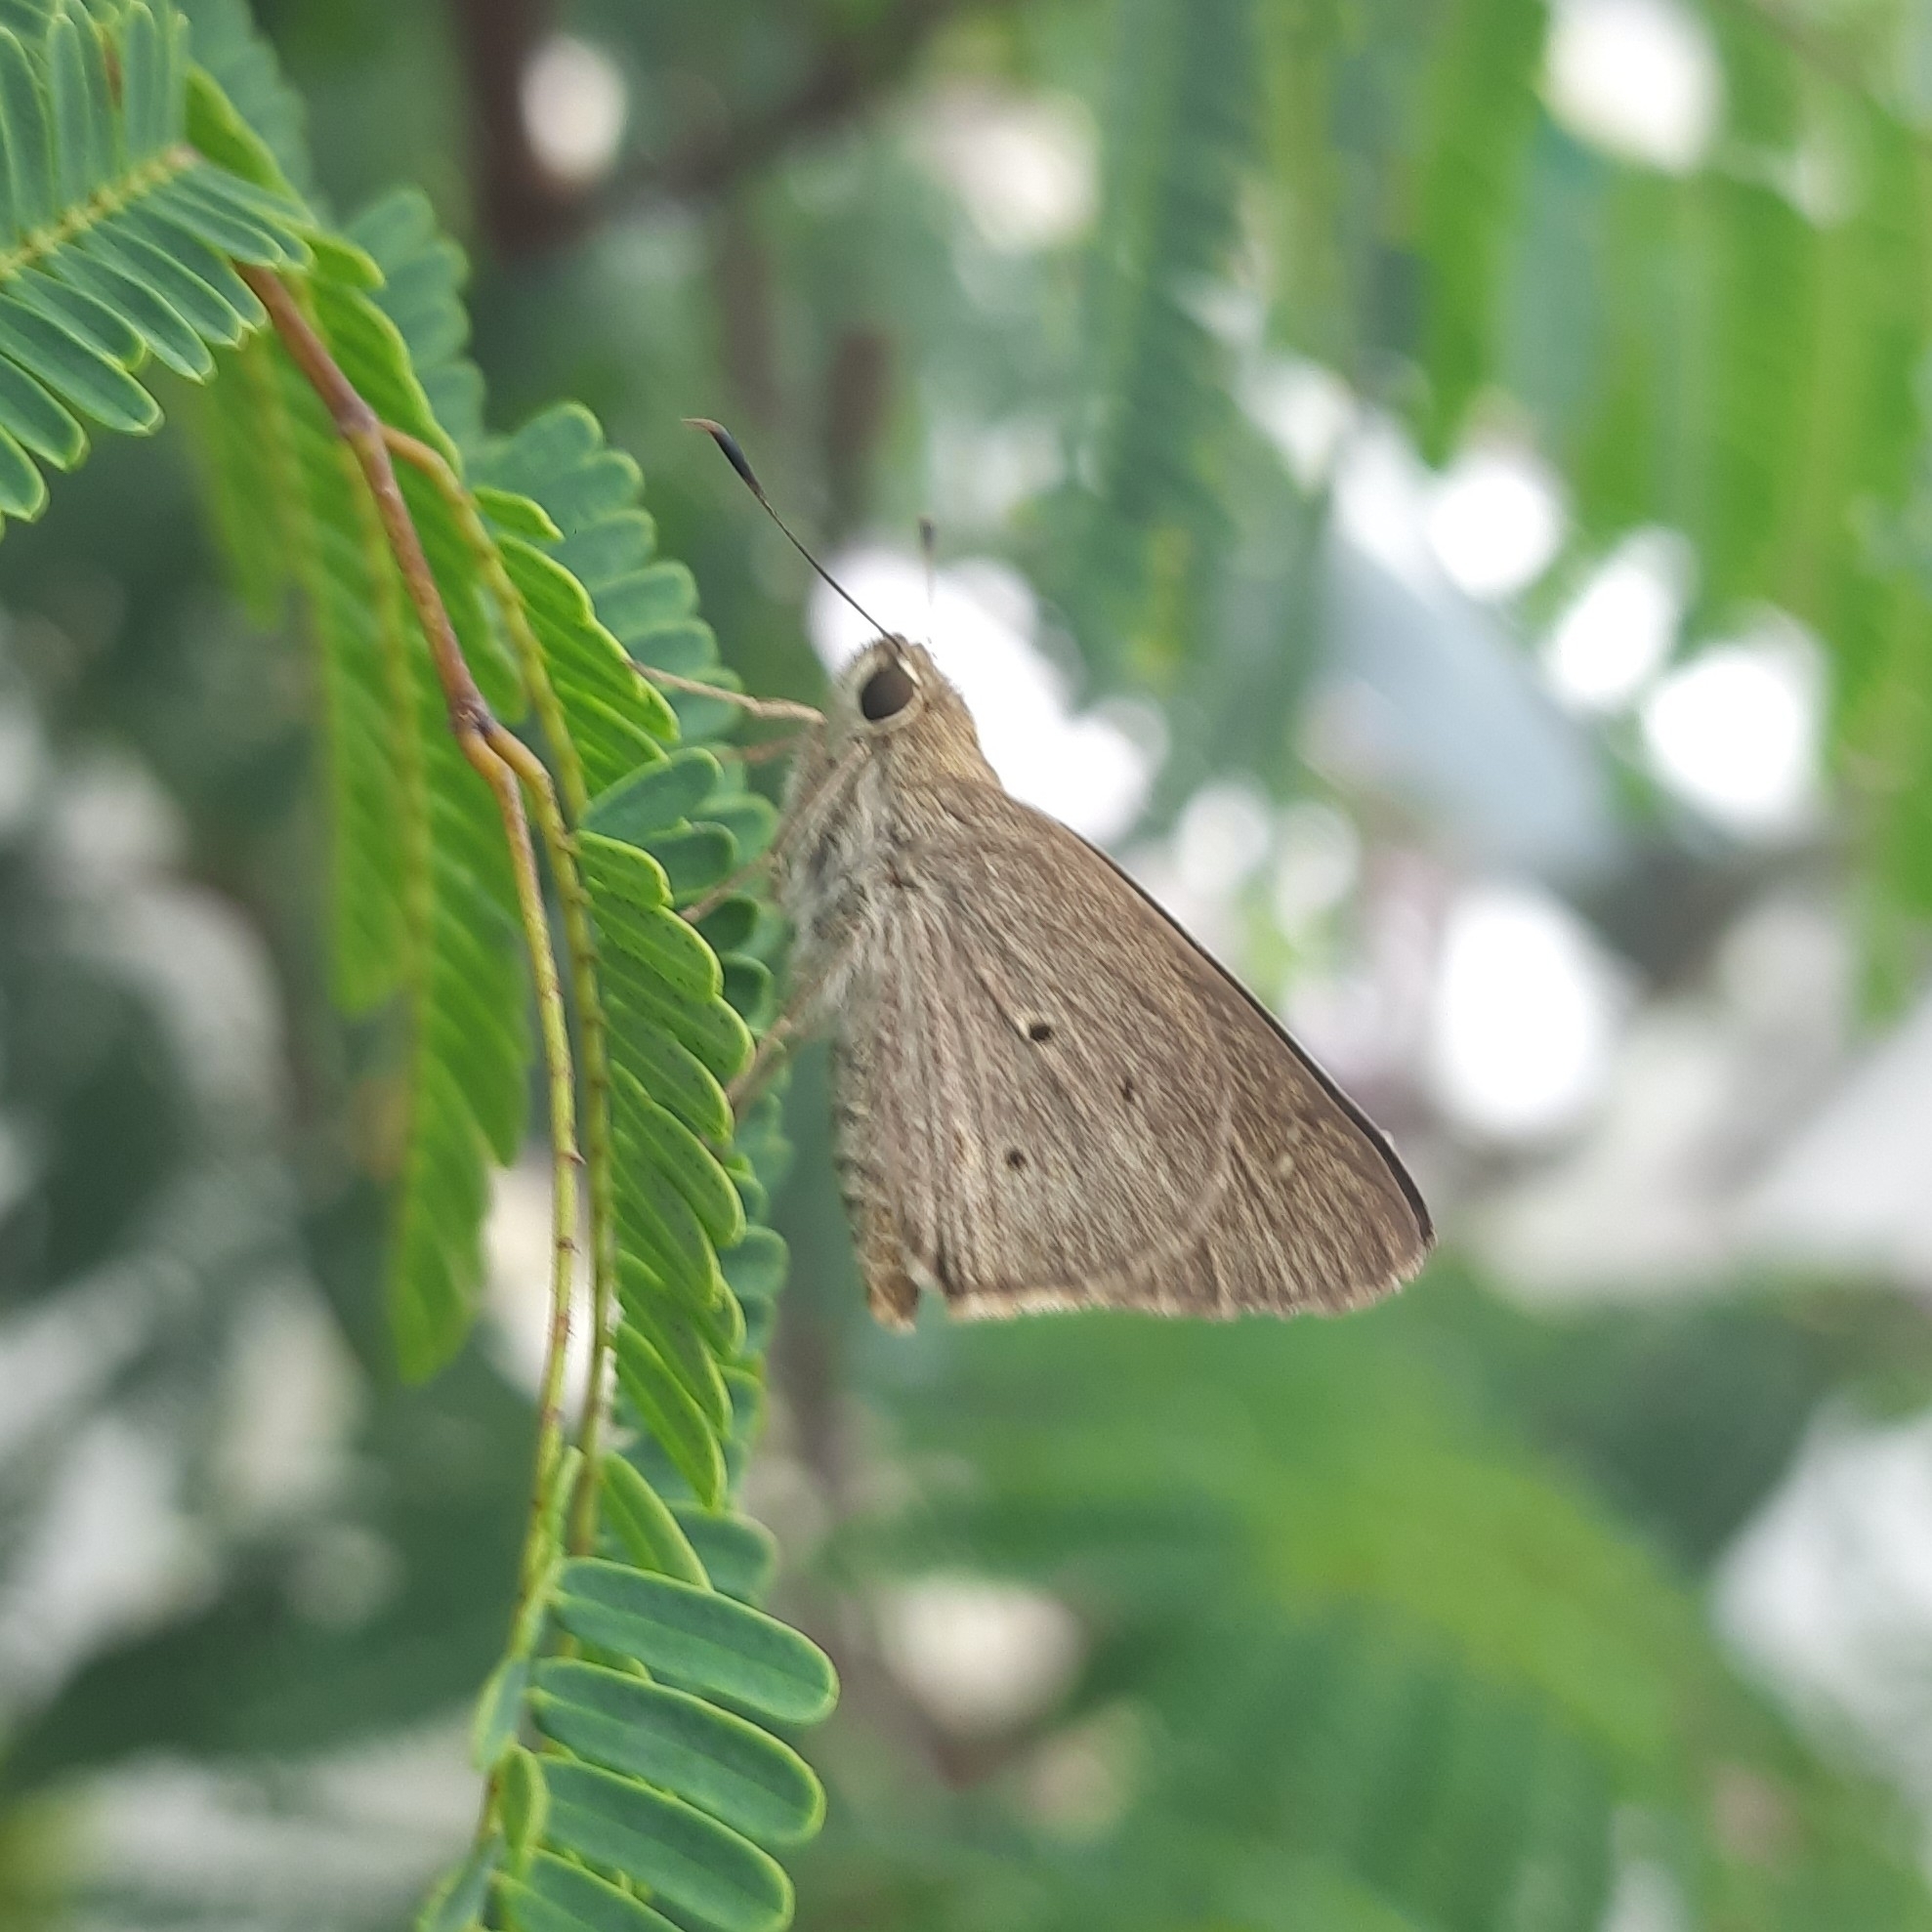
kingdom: Animalia
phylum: Arthropoda
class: Insecta
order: Lepidoptera
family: Hesperiidae
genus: Suastus
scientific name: Suastus gremius
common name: Indian palm bob
